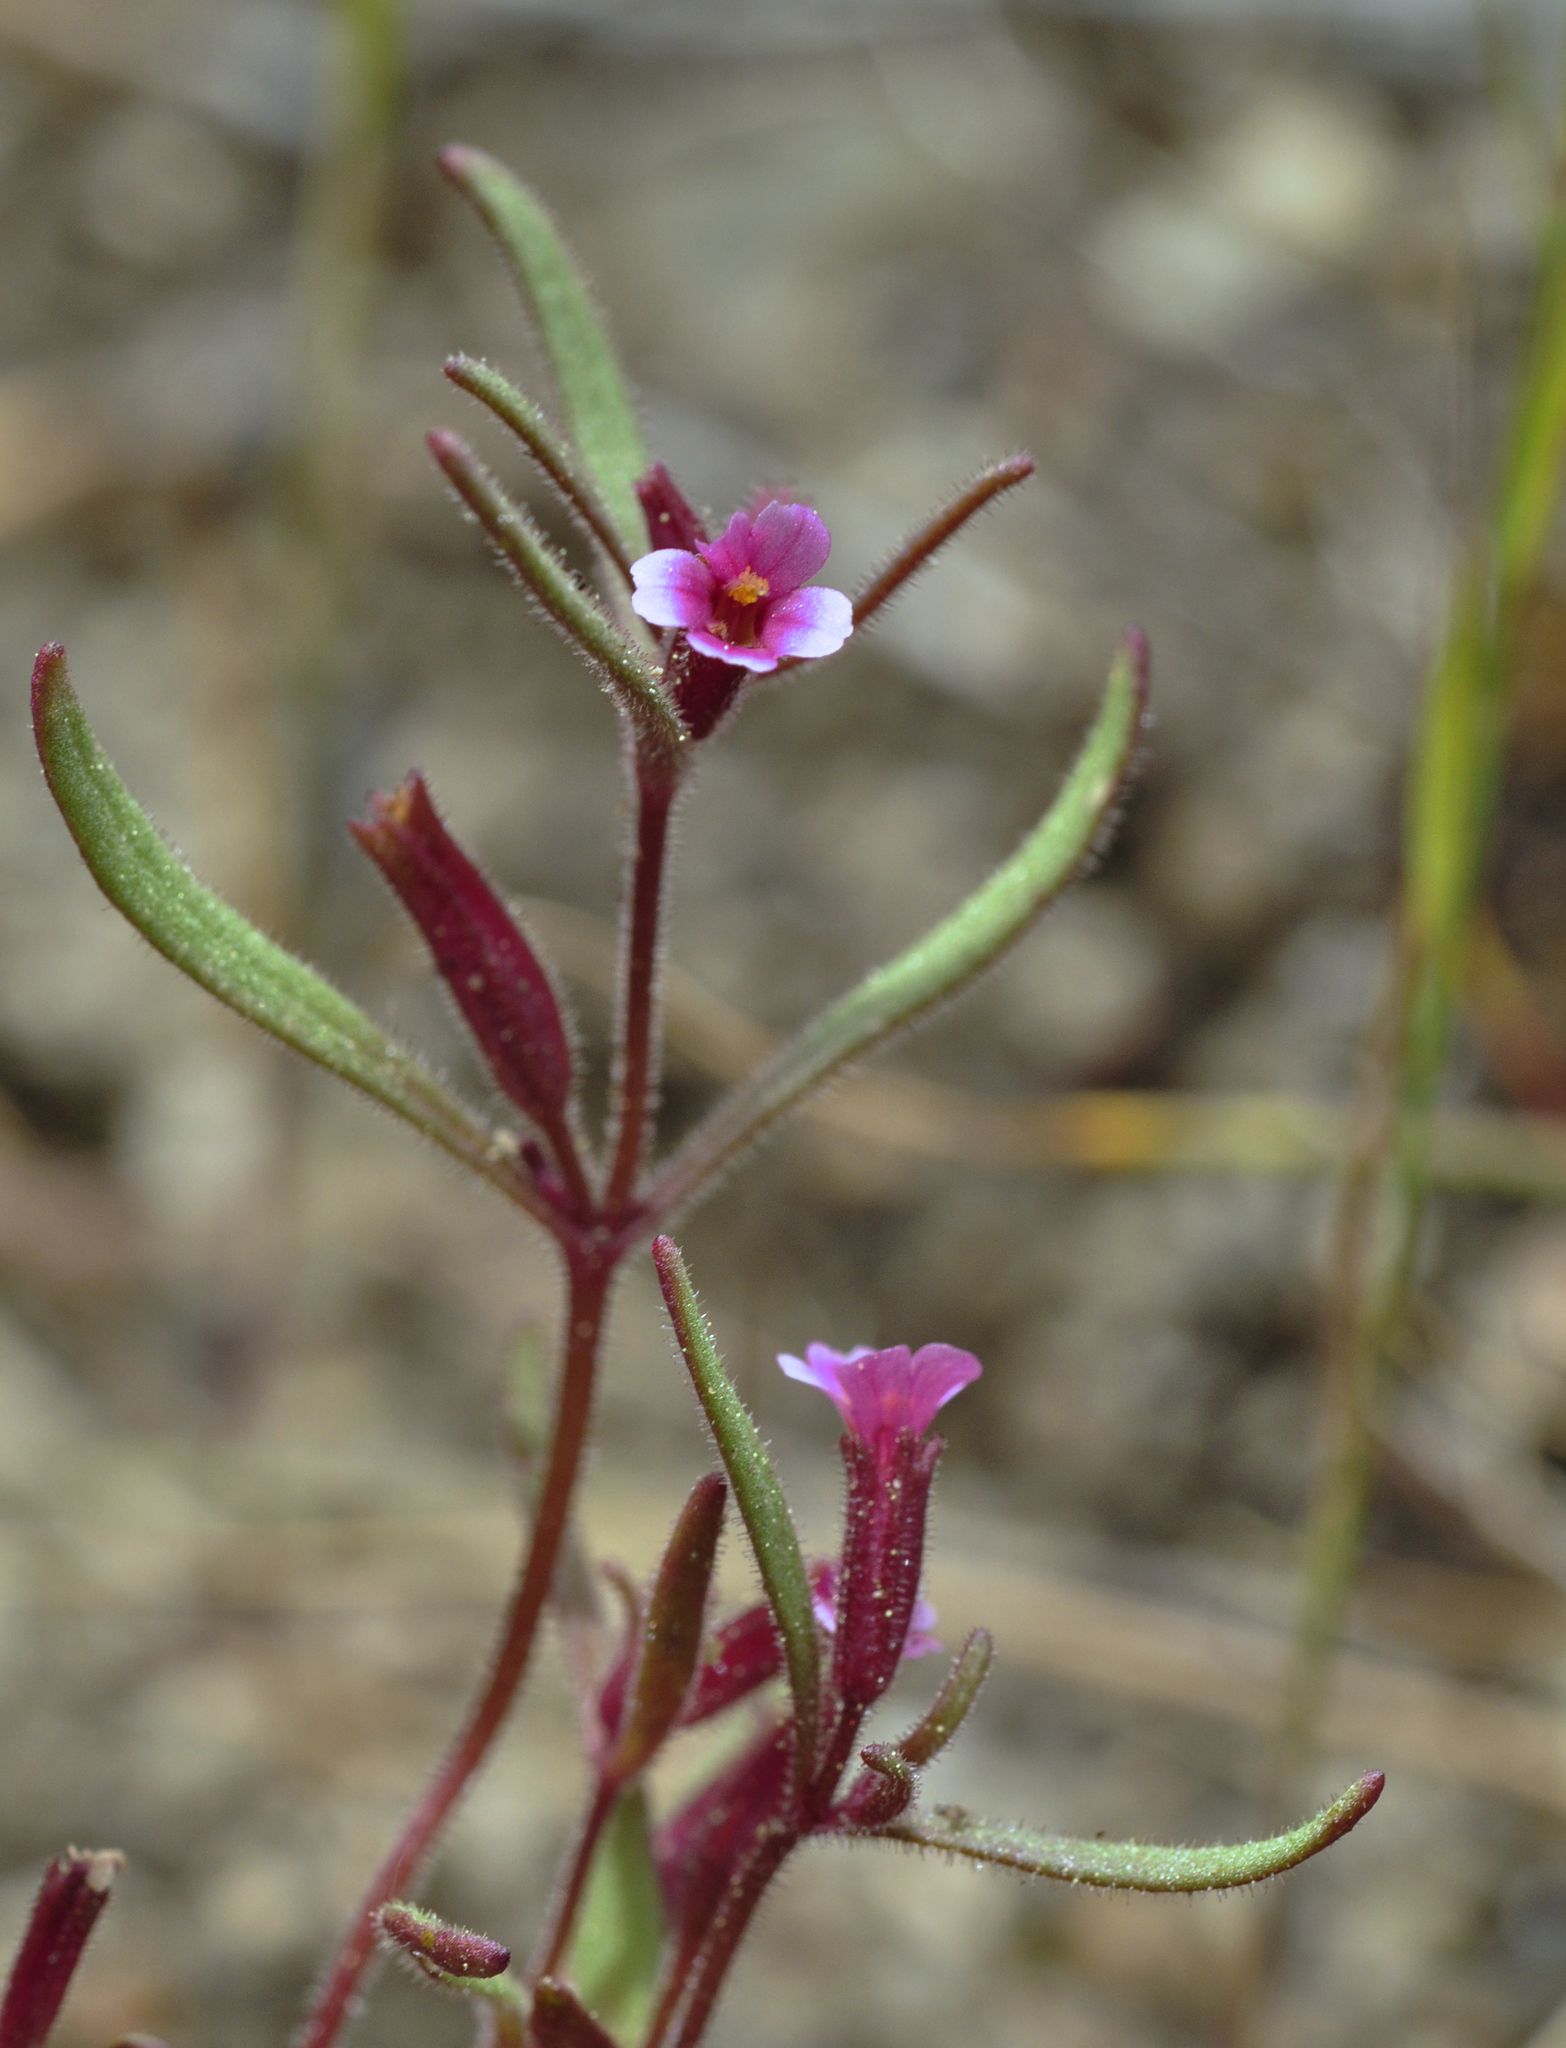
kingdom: Plantae
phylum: Tracheophyta
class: Magnoliopsida
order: Lamiales
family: Phrymaceae
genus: Erythranthe
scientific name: Erythranthe breweri
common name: Brewer's monkeyflower
